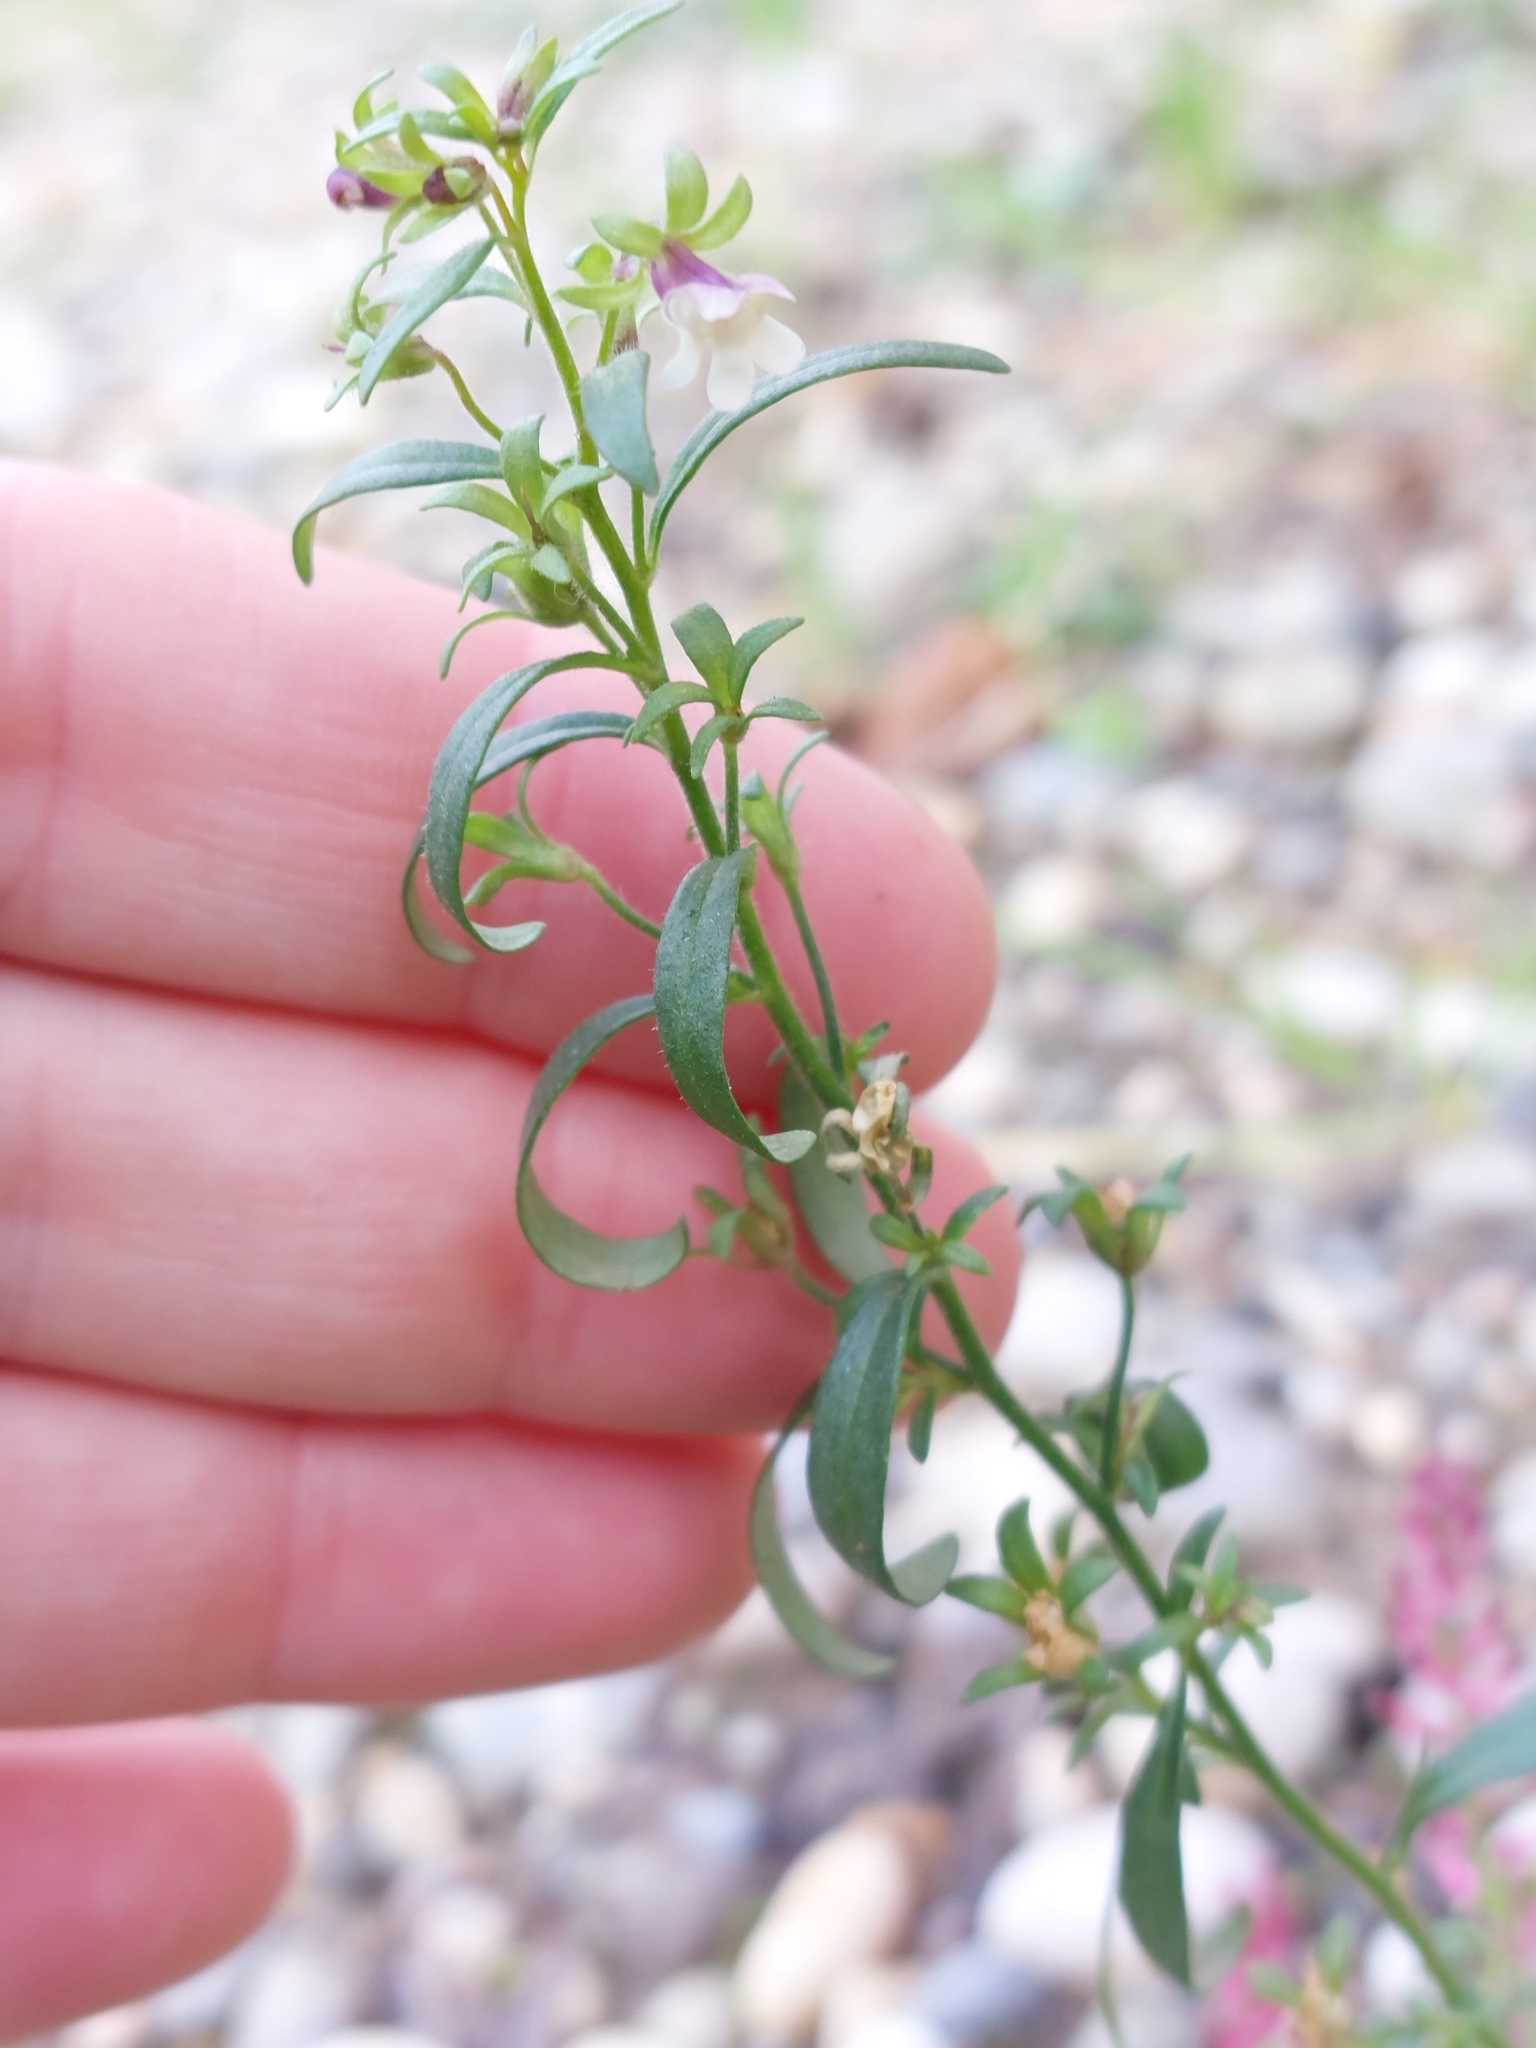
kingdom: Plantae
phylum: Tracheophyta
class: Magnoliopsida
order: Lamiales
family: Plantaginaceae
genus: Chaenorhinum
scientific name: Chaenorhinum minus
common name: Dwarf snapdragon
